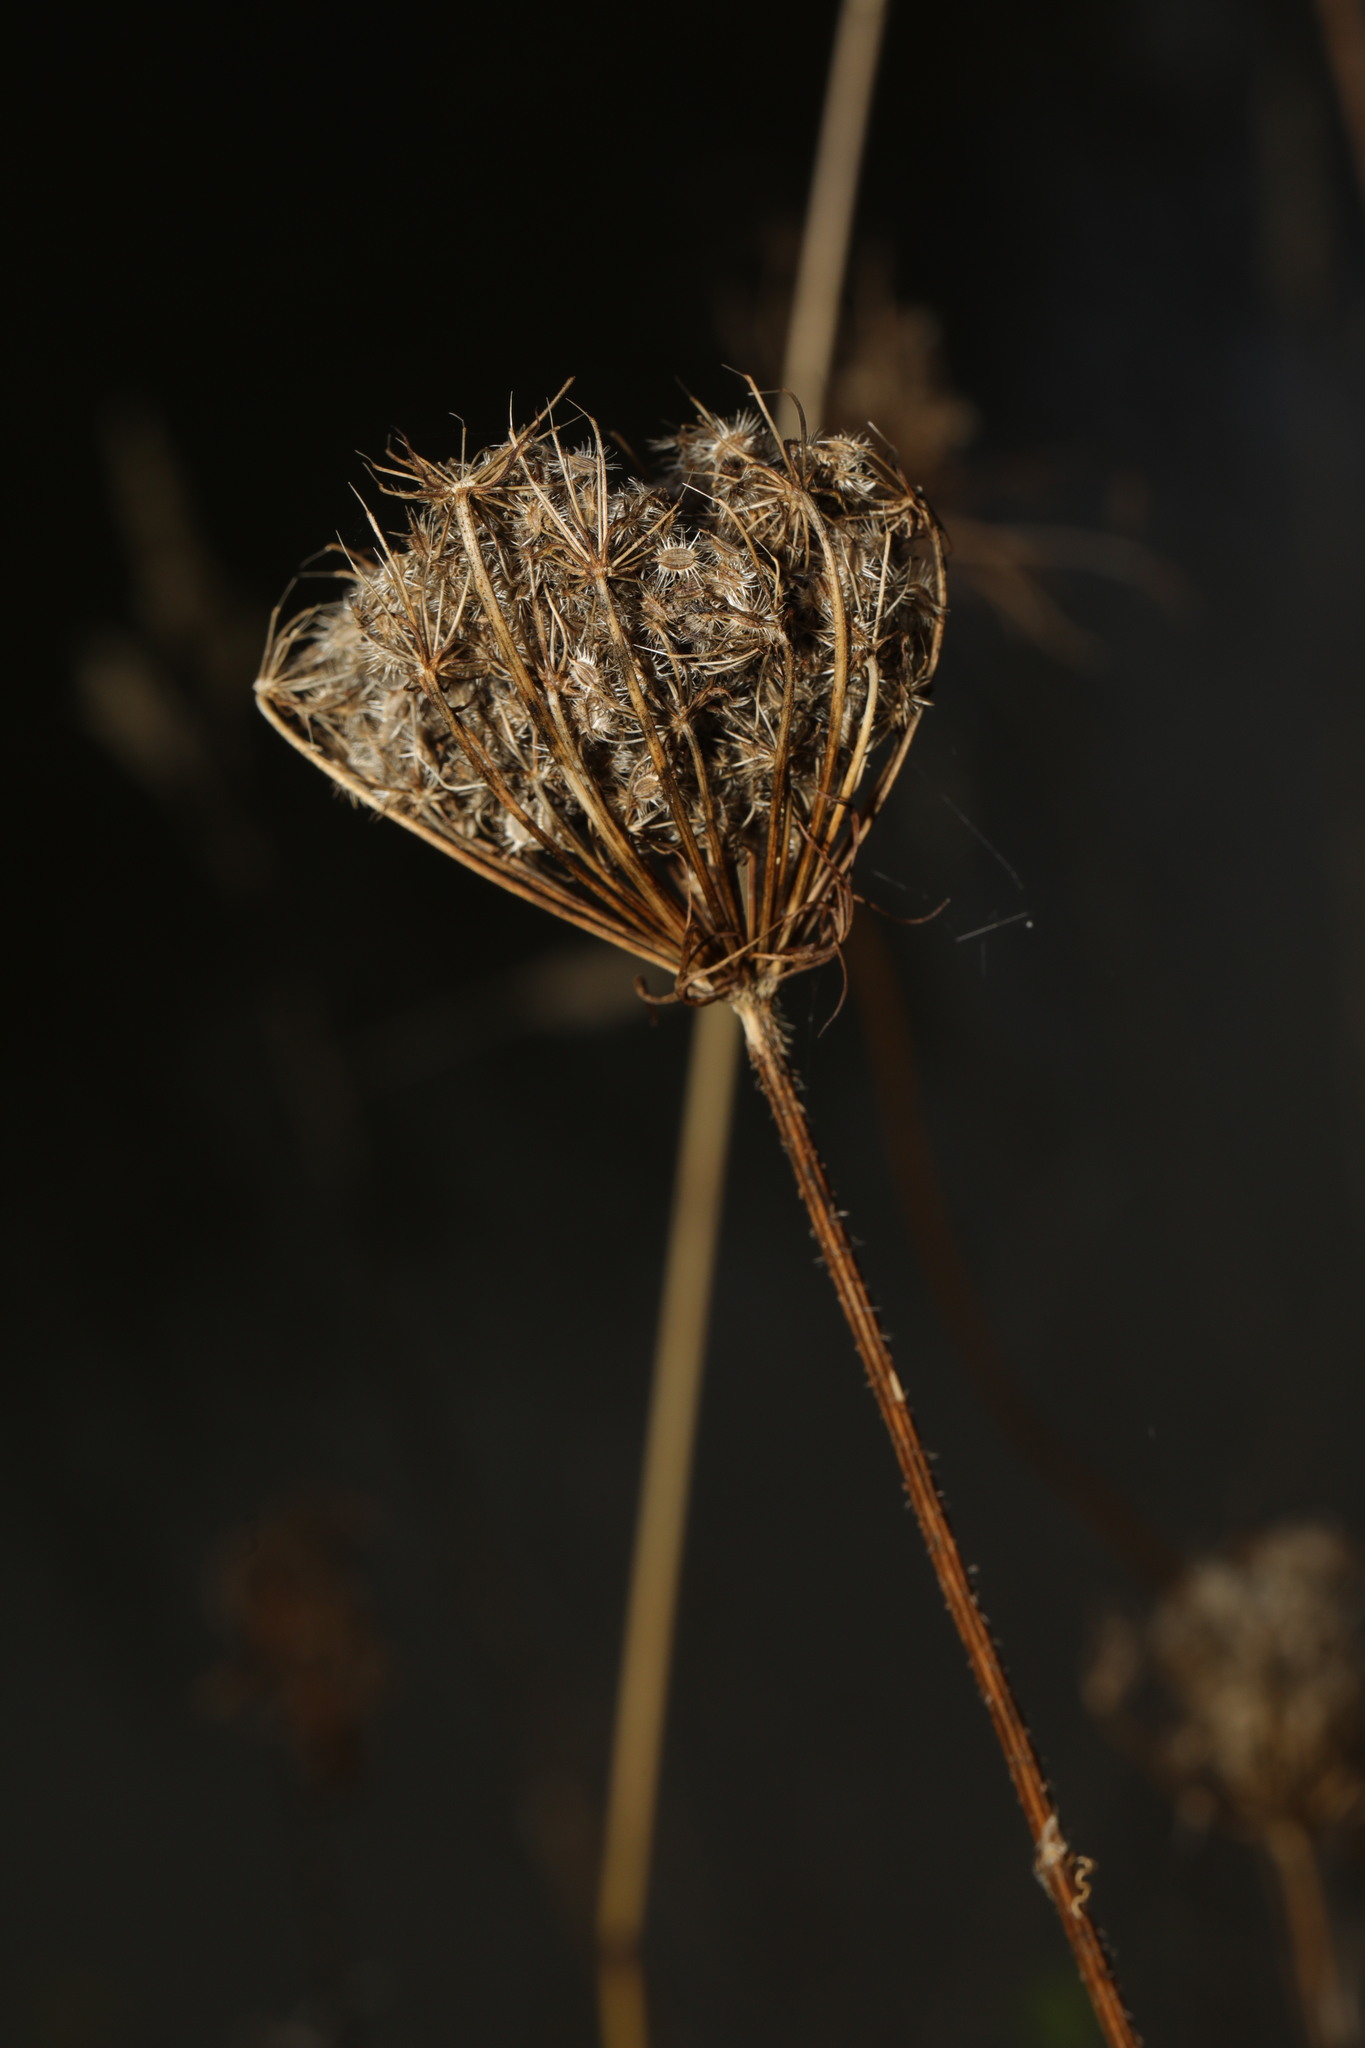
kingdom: Plantae
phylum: Tracheophyta
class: Magnoliopsida
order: Apiales
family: Apiaceae
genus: Daucus
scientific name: Daucus carota
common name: Wild carrot
